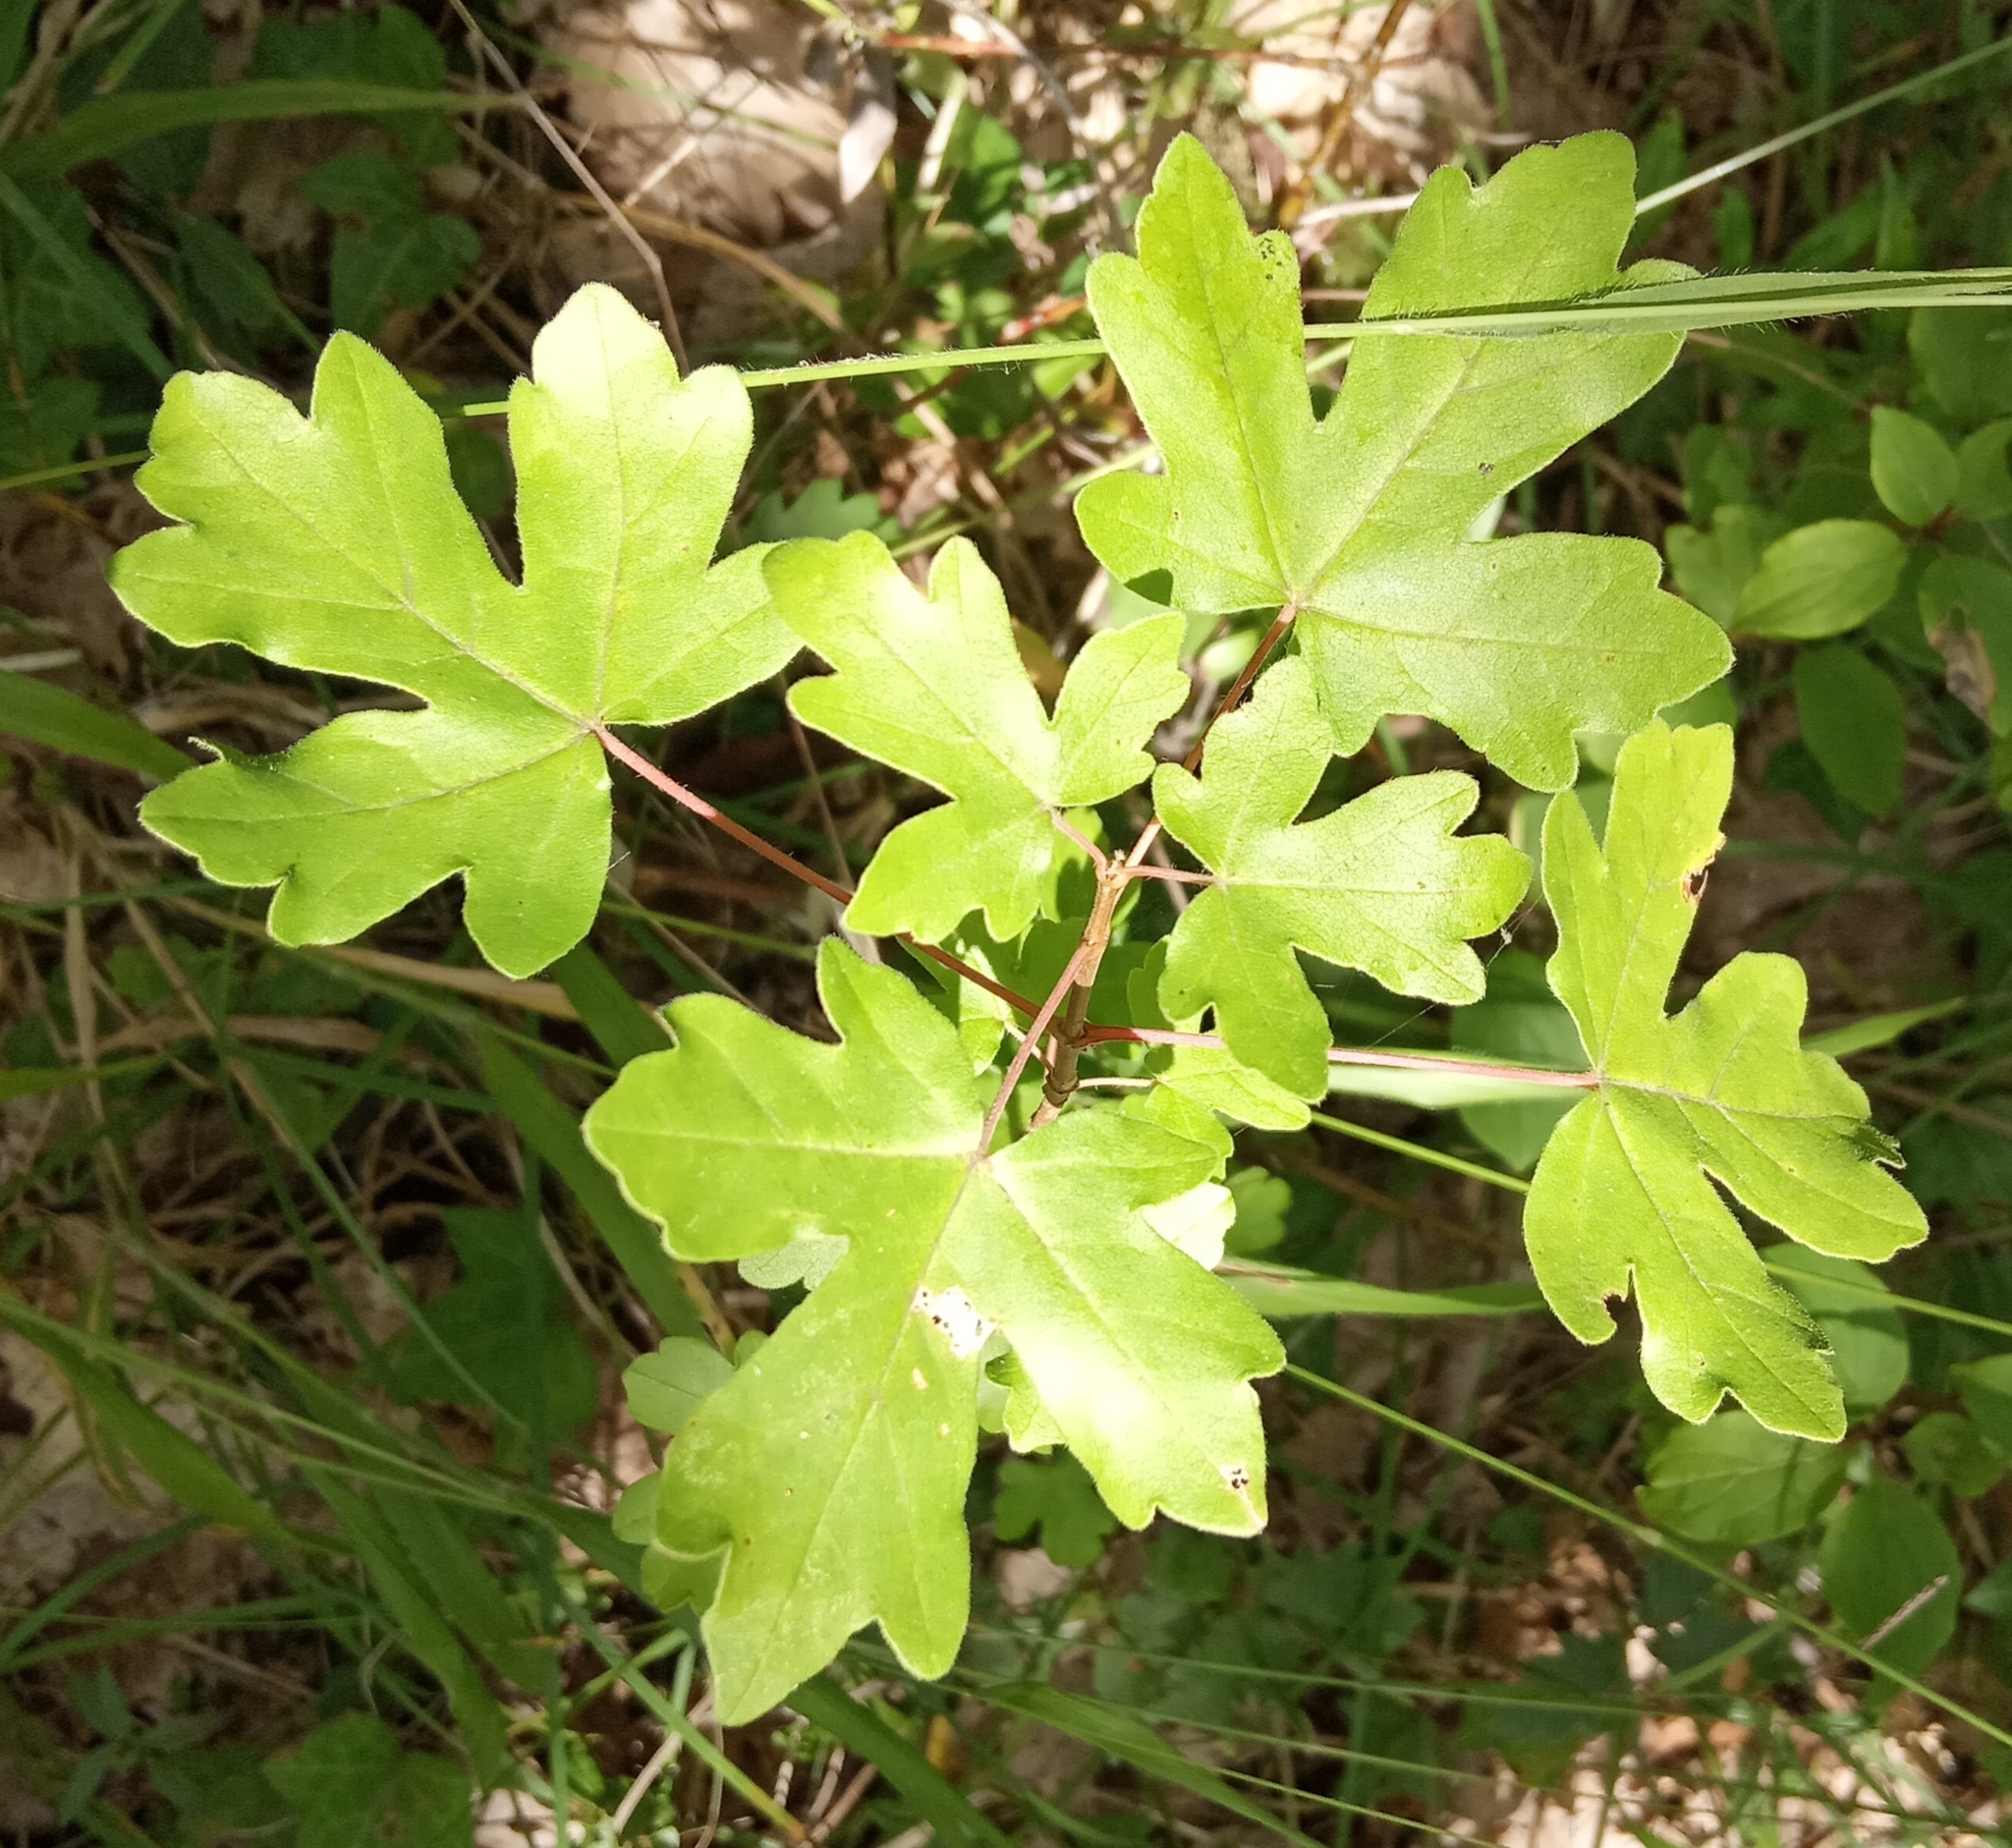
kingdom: Plantae
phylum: Tracheophyta
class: Magnoliopsida
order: Sapindales
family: Sapindaceae
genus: Acer
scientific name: Acer campestre
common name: Field maple
